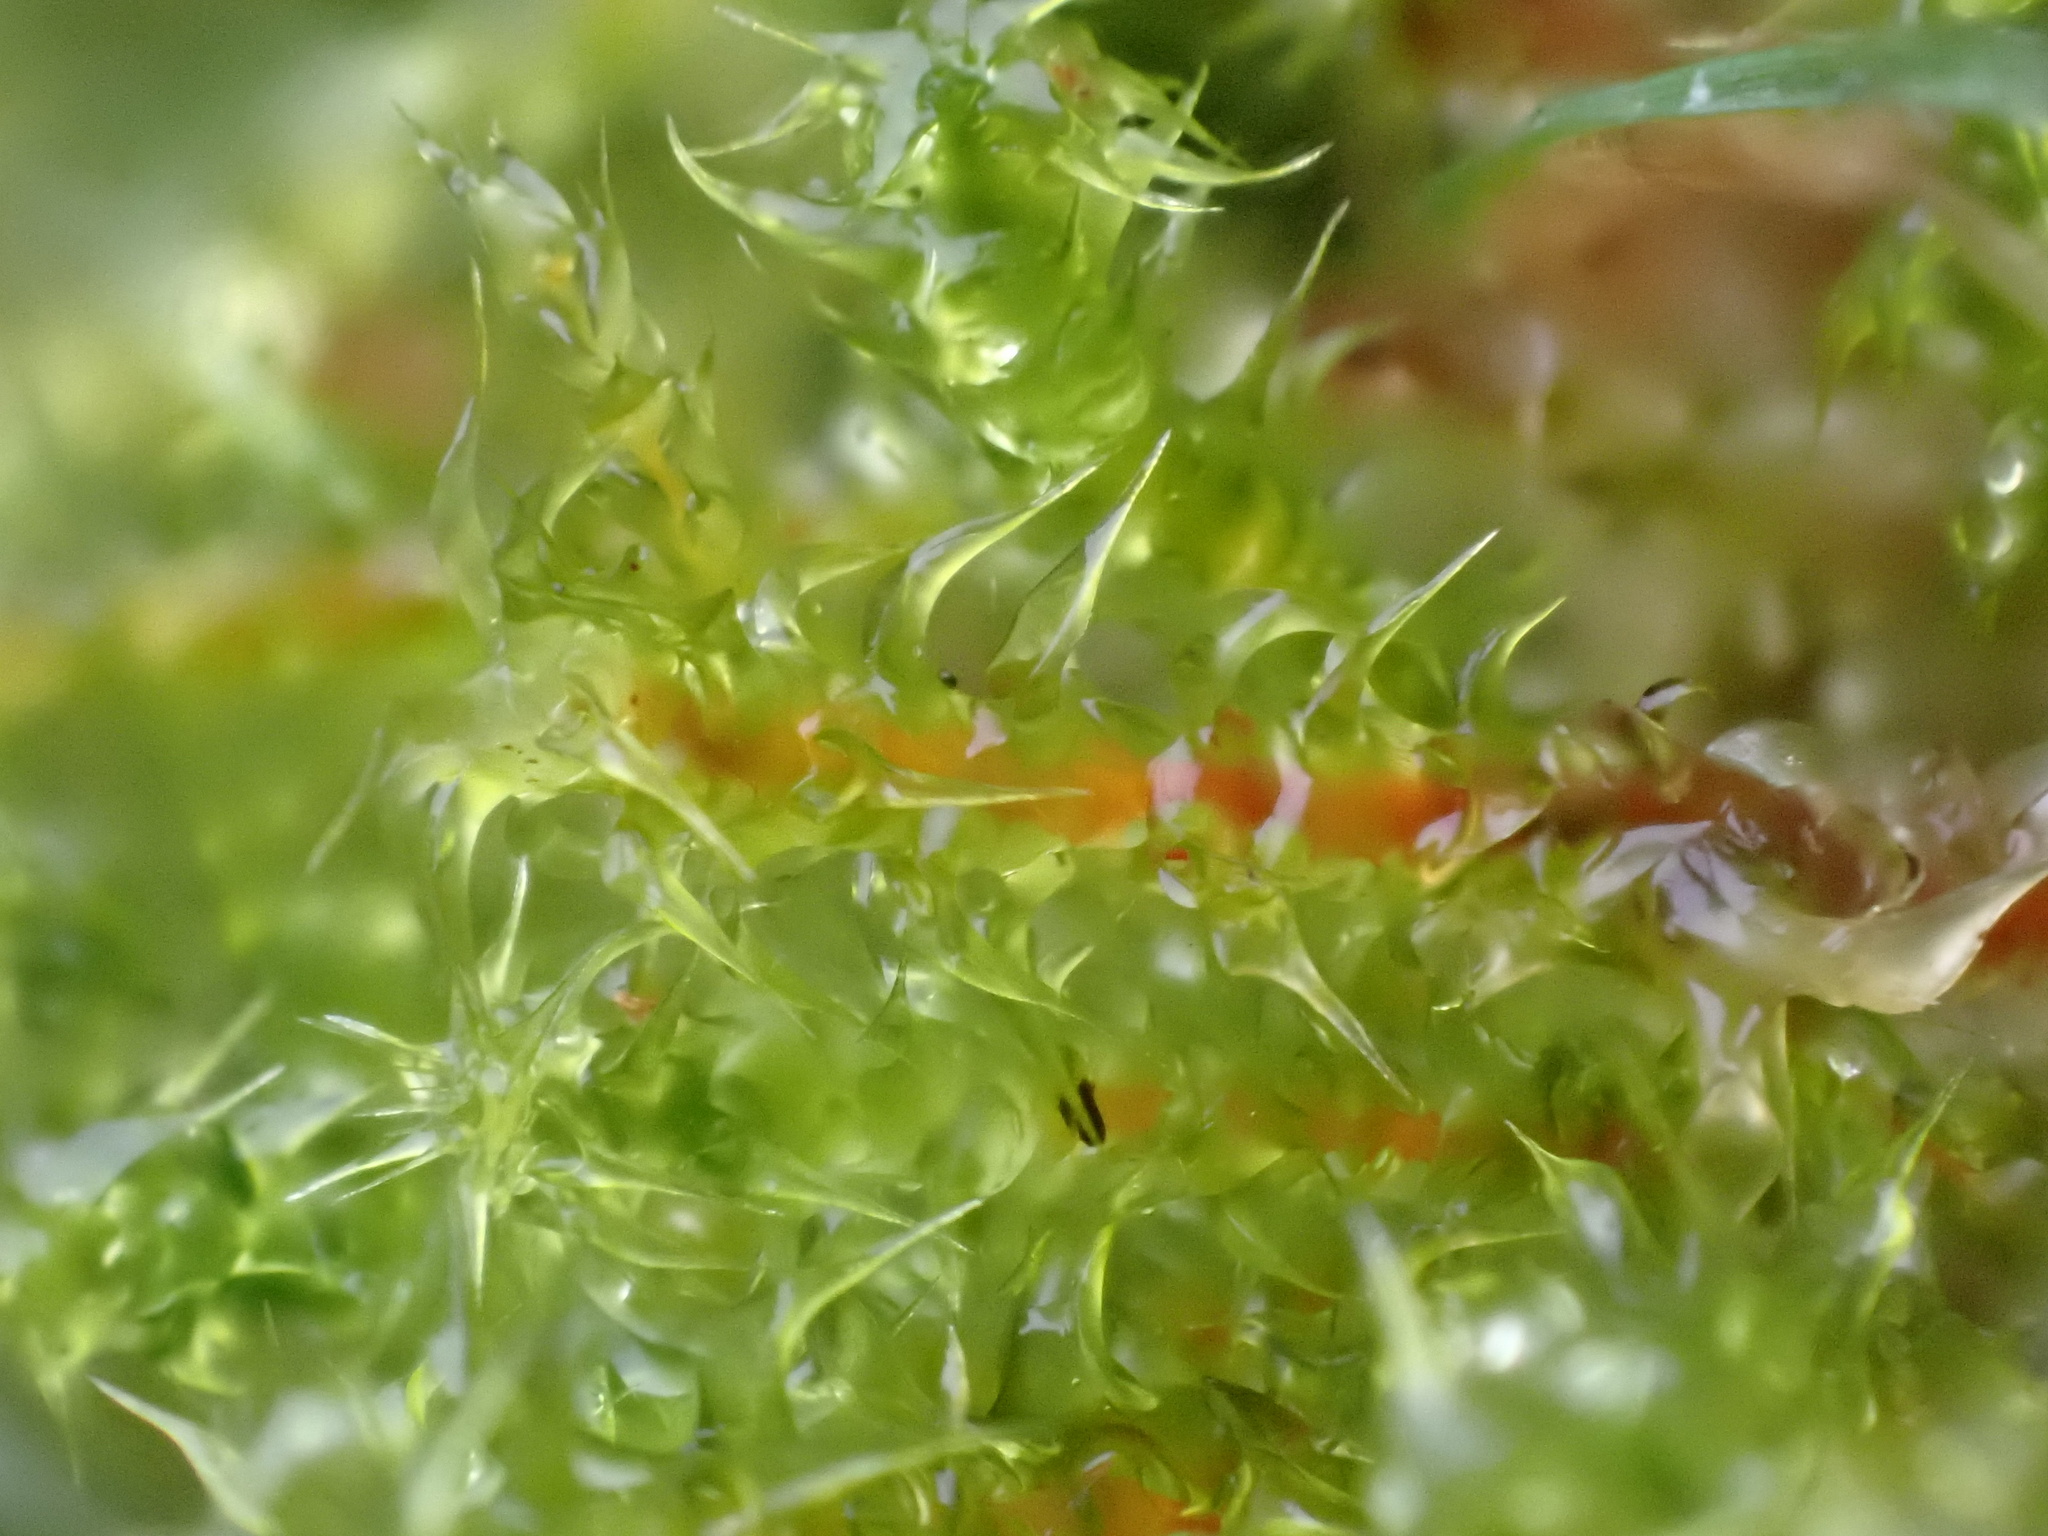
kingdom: Plantae
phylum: Bryophyta
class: Bryopsida
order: Hypnales
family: Hylocomiaceae
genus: Rhytidiadelphus
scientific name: Rhytidiadelphus squarrosus
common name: Springy turf-moss
